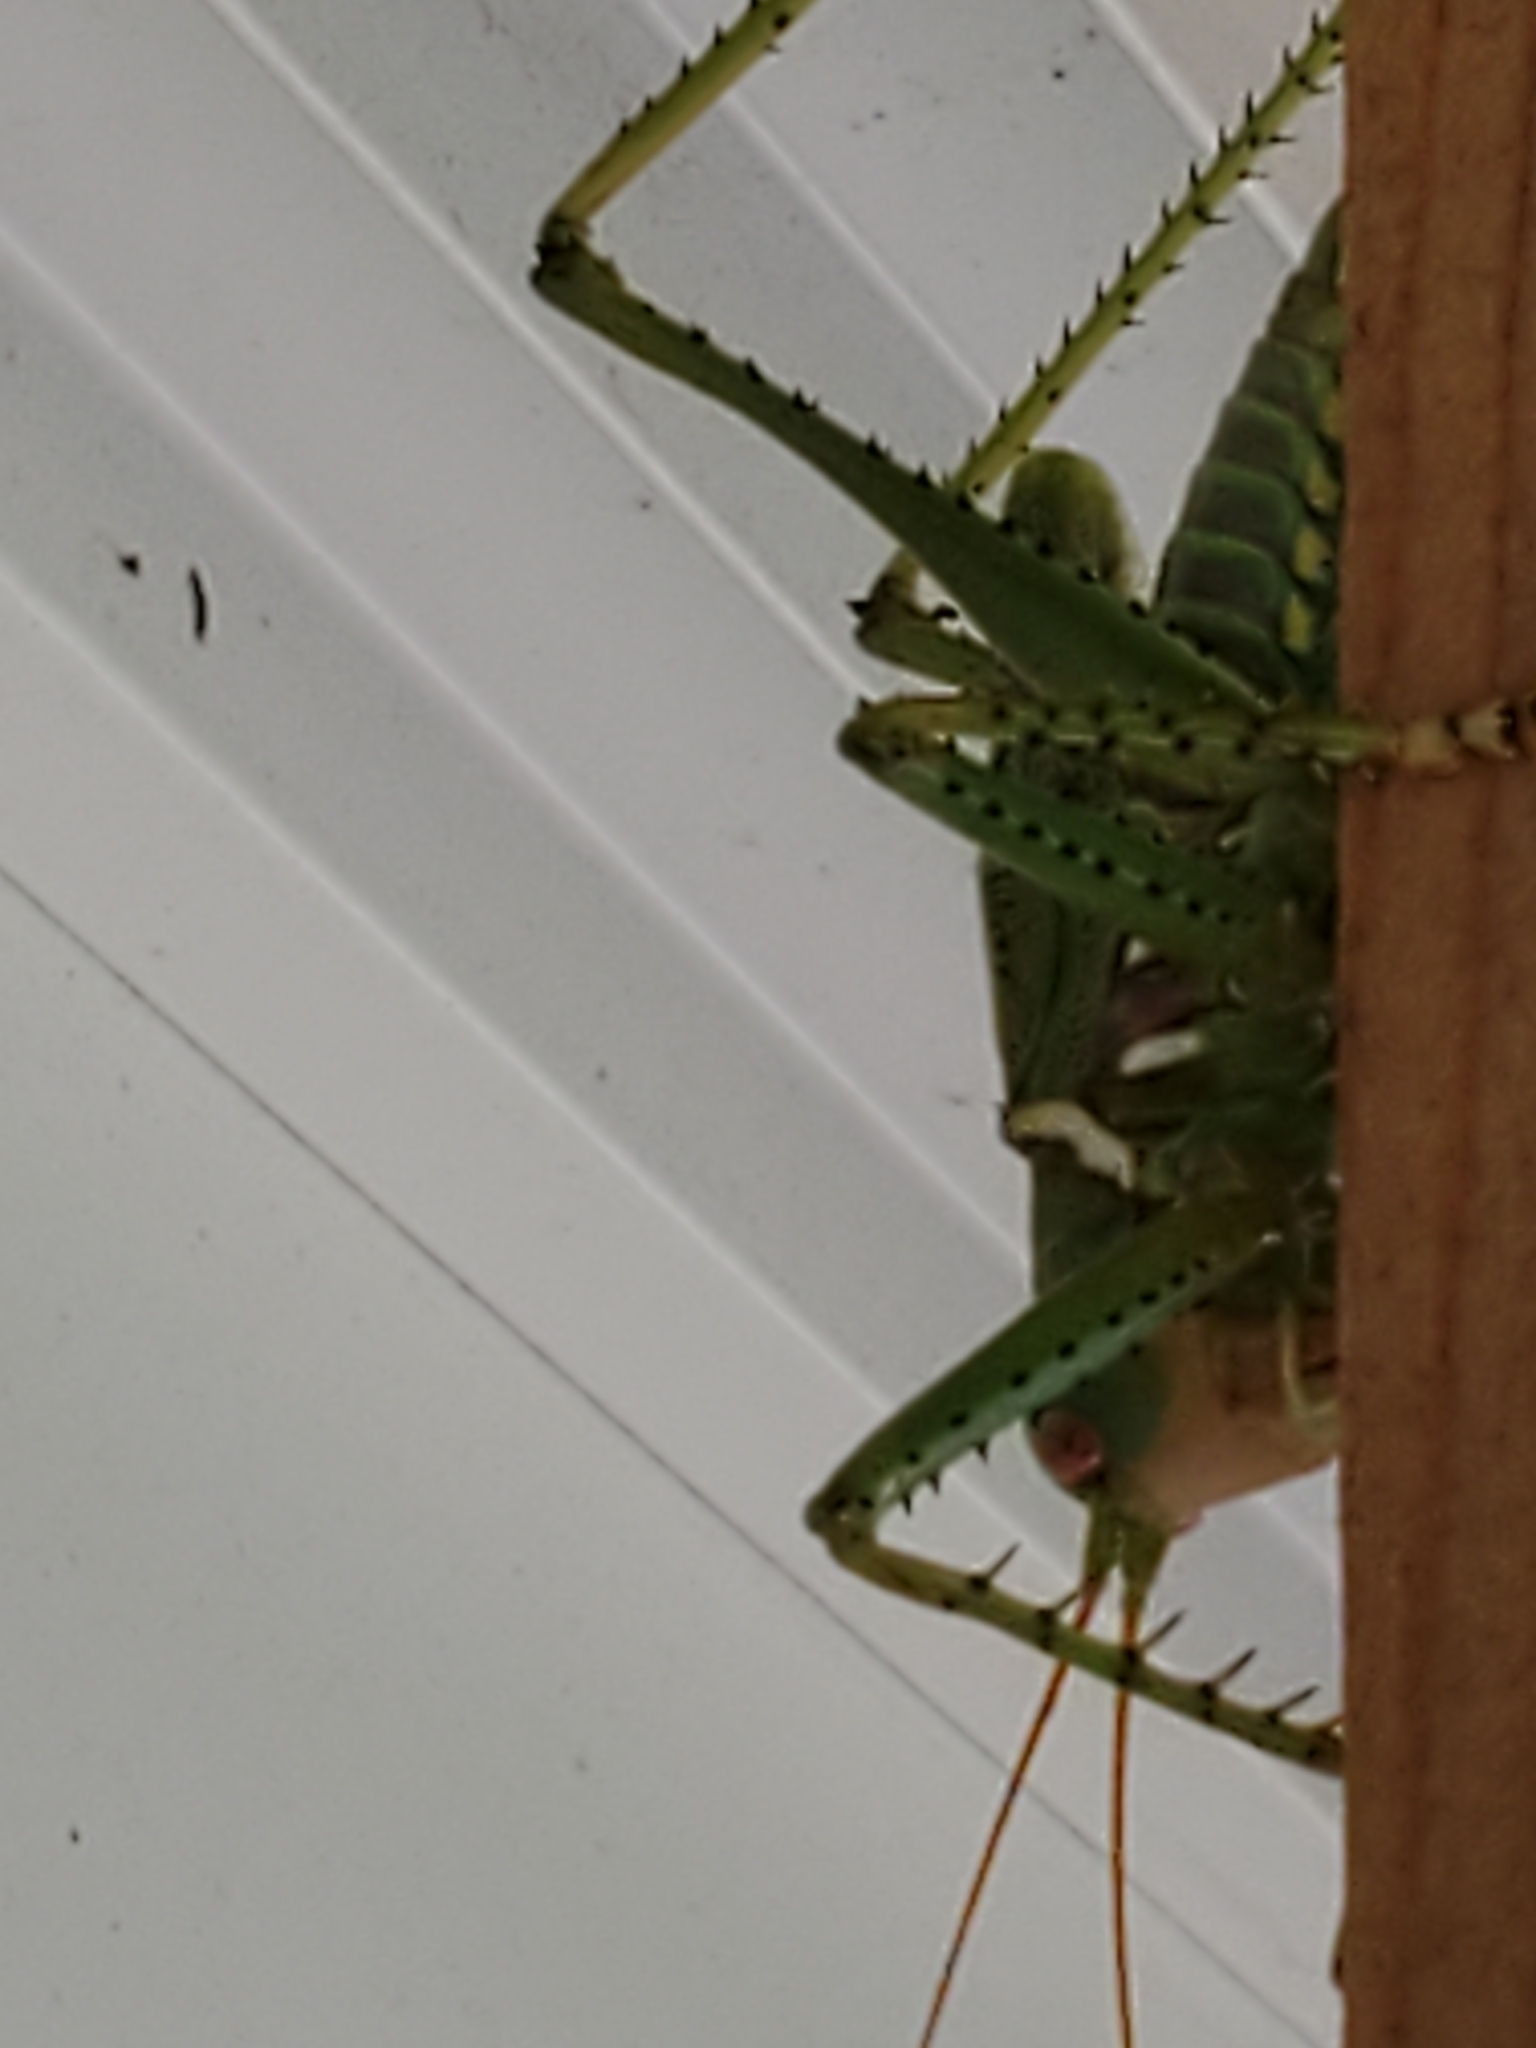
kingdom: Animalia
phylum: Arthropoda
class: Insecta
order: Orthoptera
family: Tettigoniidae
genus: Neobarrettia
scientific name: Neobarrettia spinosa
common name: Greater arid-land katydid
